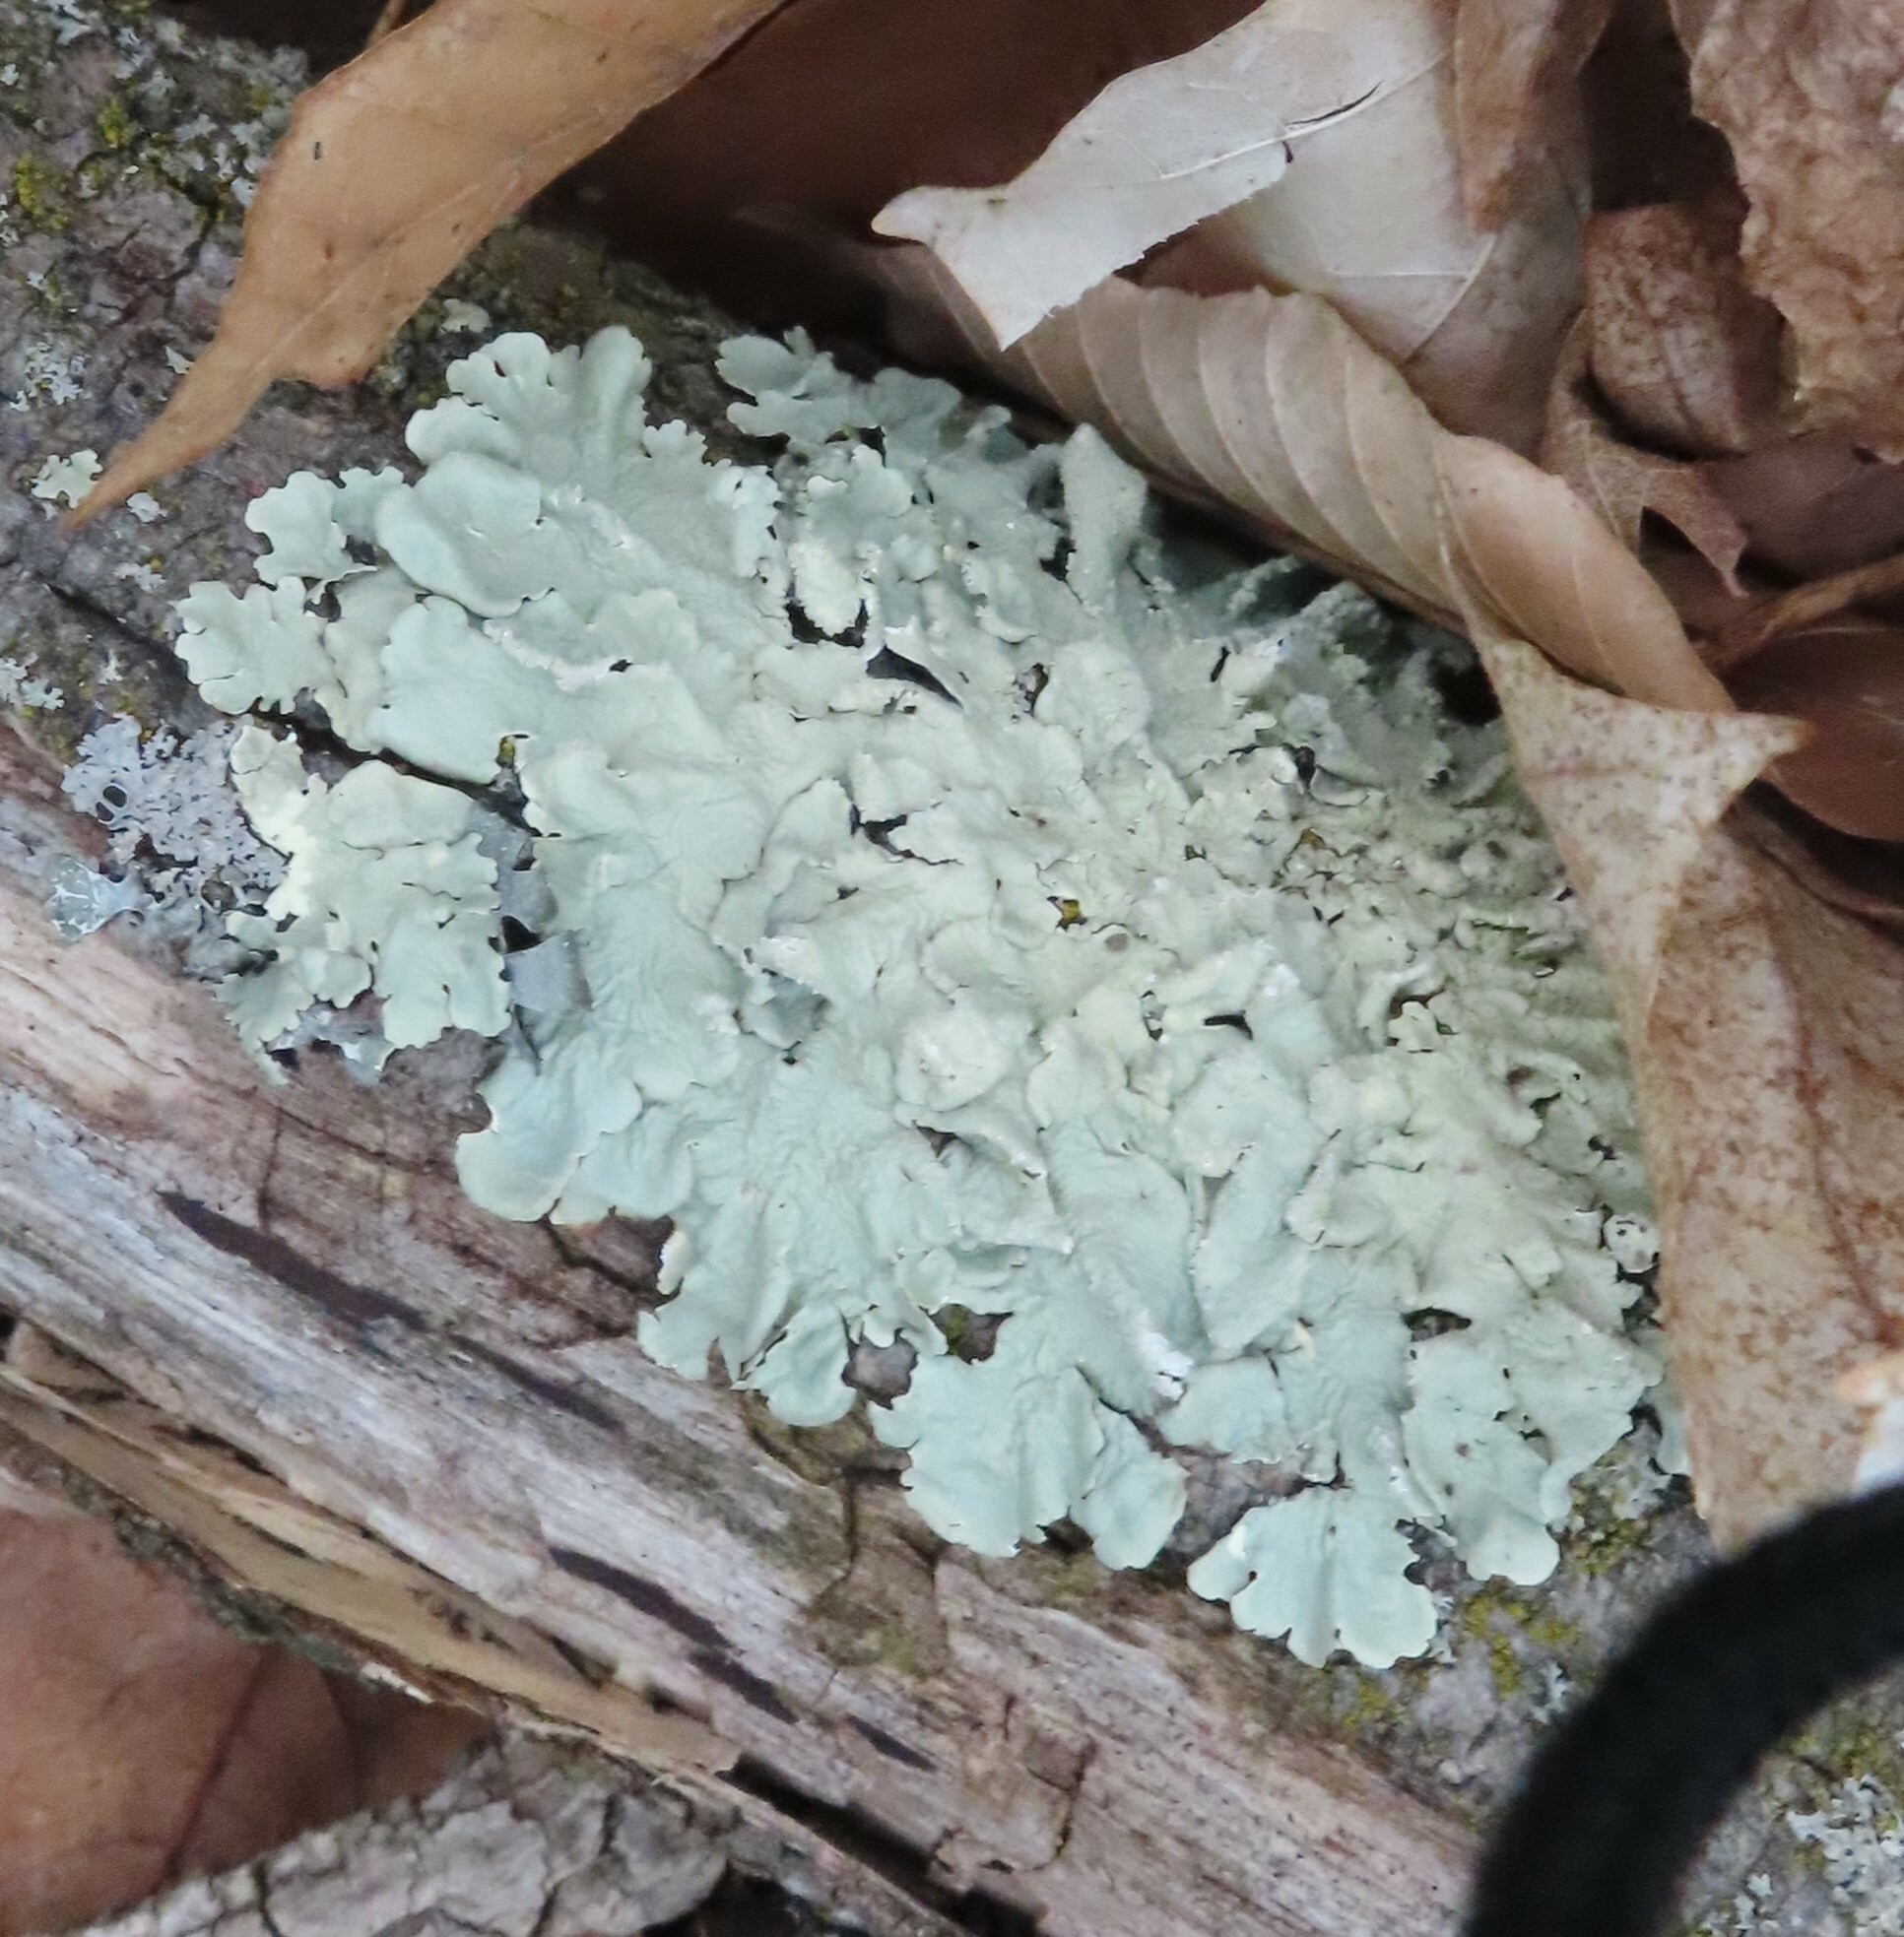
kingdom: Fungi
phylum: Ascomycota
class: Lecanoromycetes
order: Lecanorales
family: Parmeliaceae
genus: Flavoparmelia
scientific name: Flavoparmelia caperata
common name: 40-mile per hour lichen
